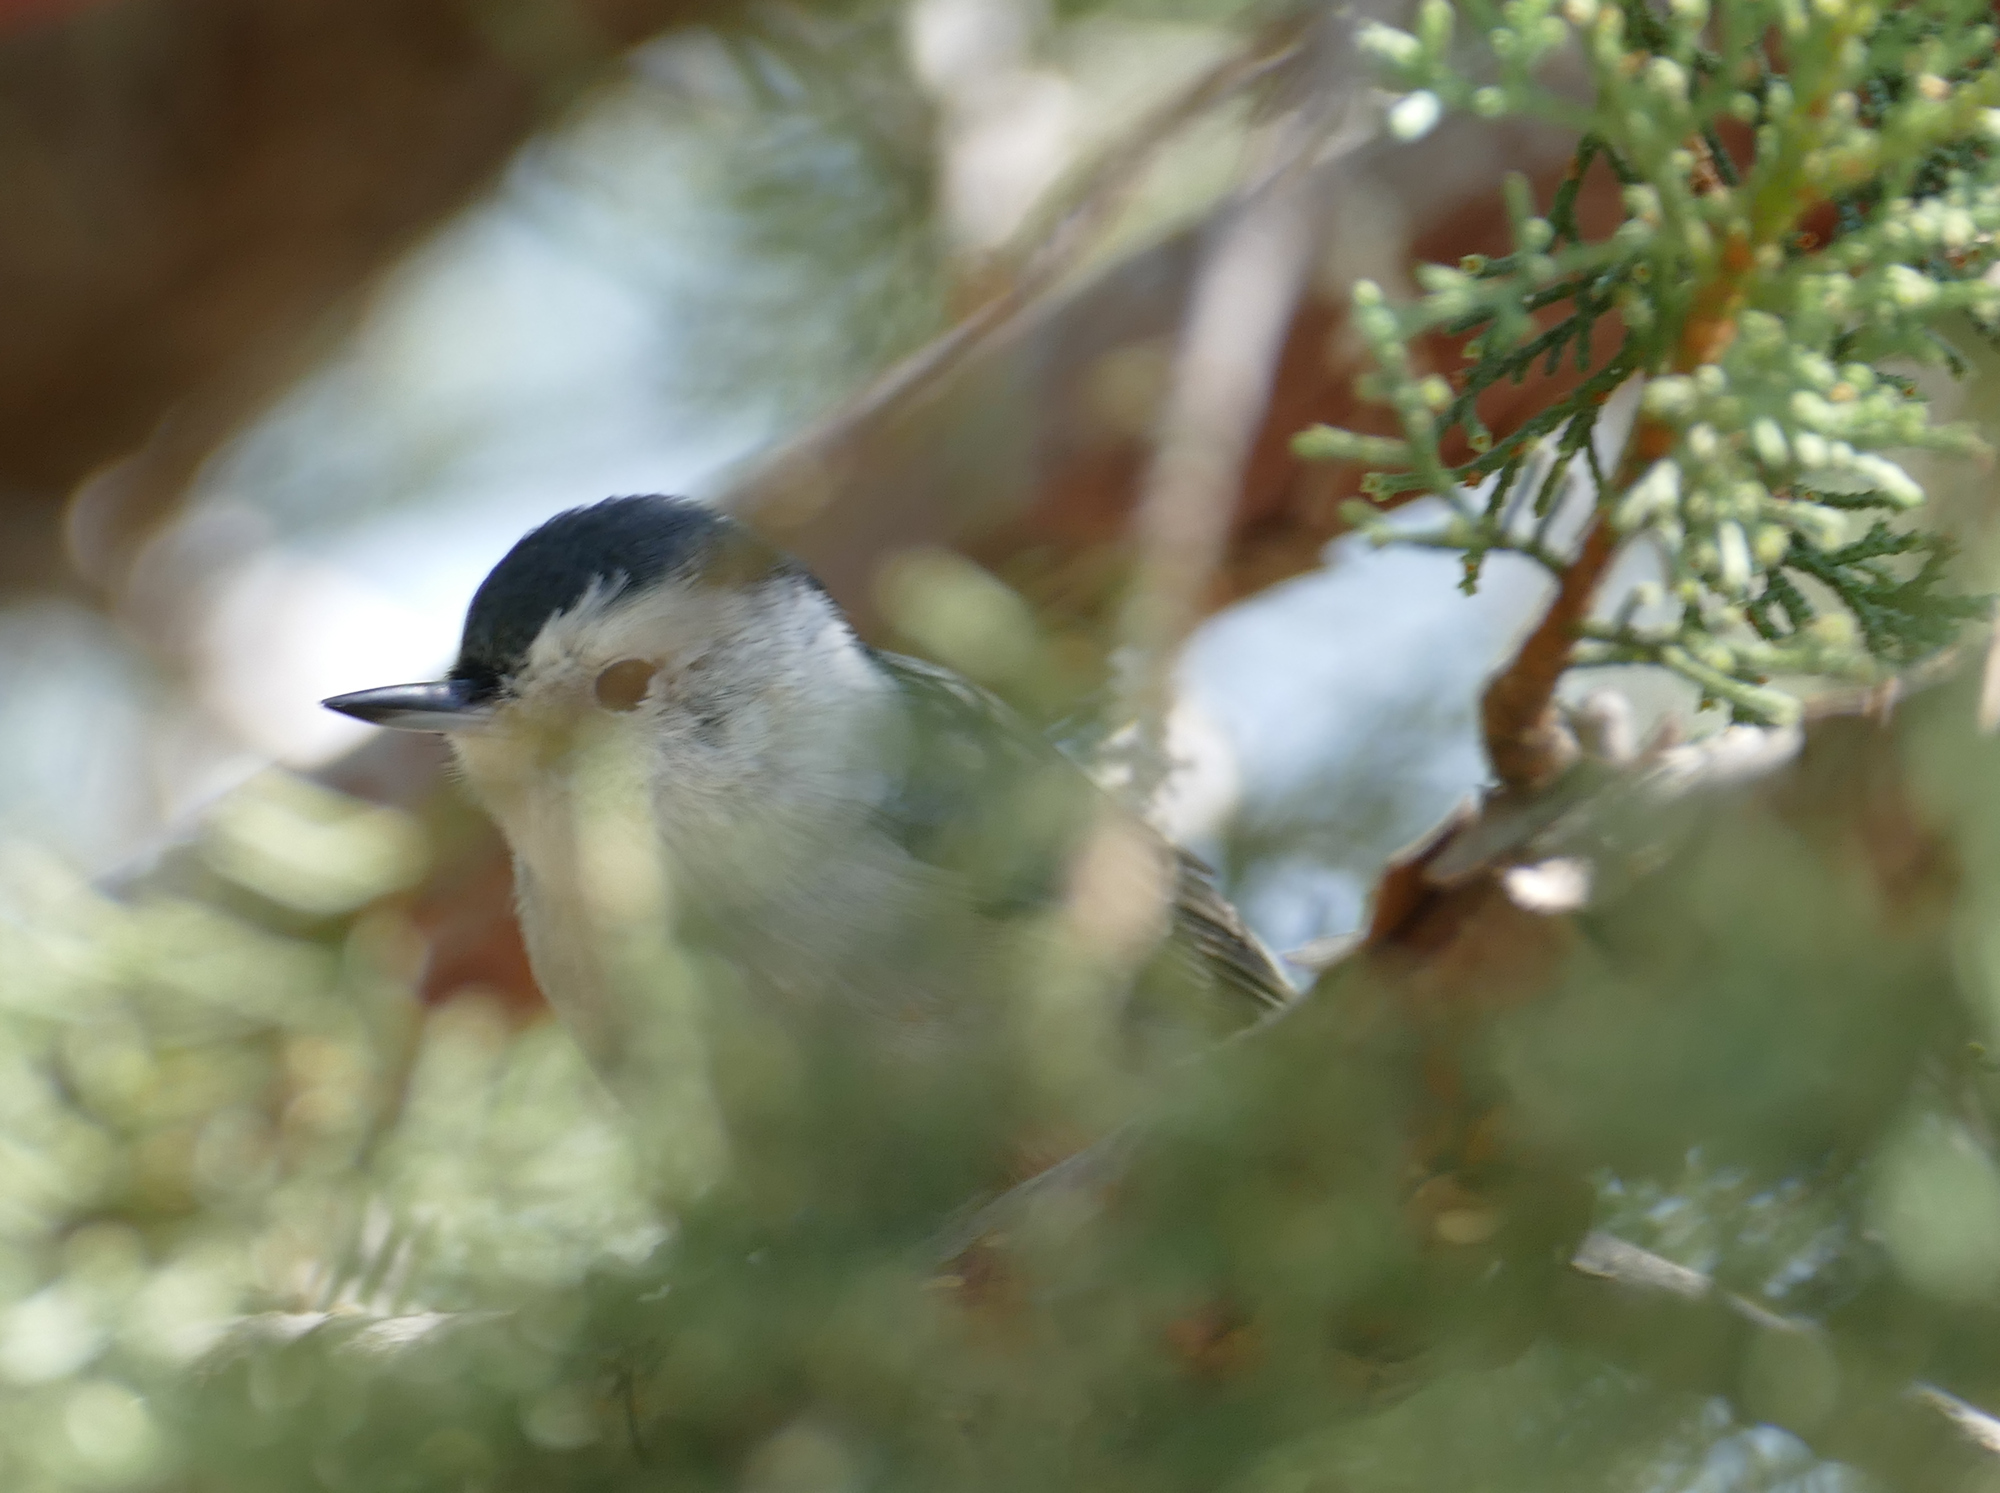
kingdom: Animalia
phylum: Chordata
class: Aves
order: Passeriformes
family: Sittidae
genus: Sitta
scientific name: Sitta carolinensis
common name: White-breasted nuthatch
